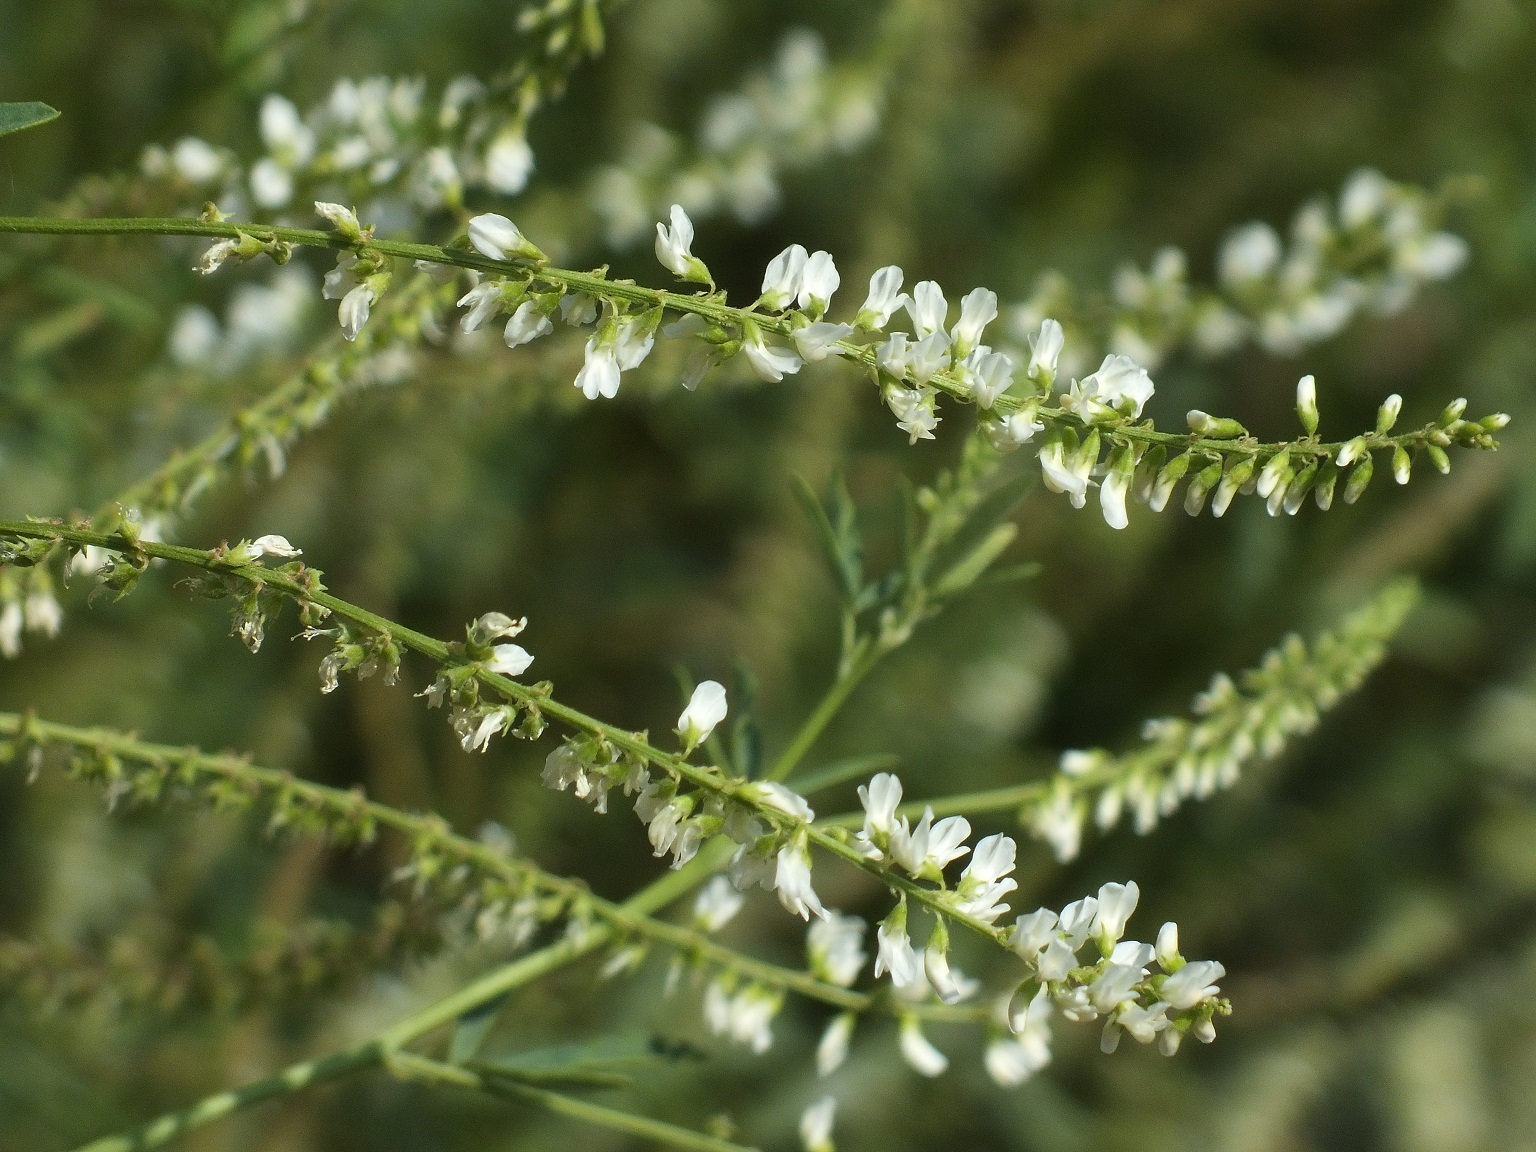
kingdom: Plantae
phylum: Tracheophyta
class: Magnoliopsida
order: Fabales
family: Fabaceae
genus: Melilotus
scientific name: Melilotus albus
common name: White melilot
